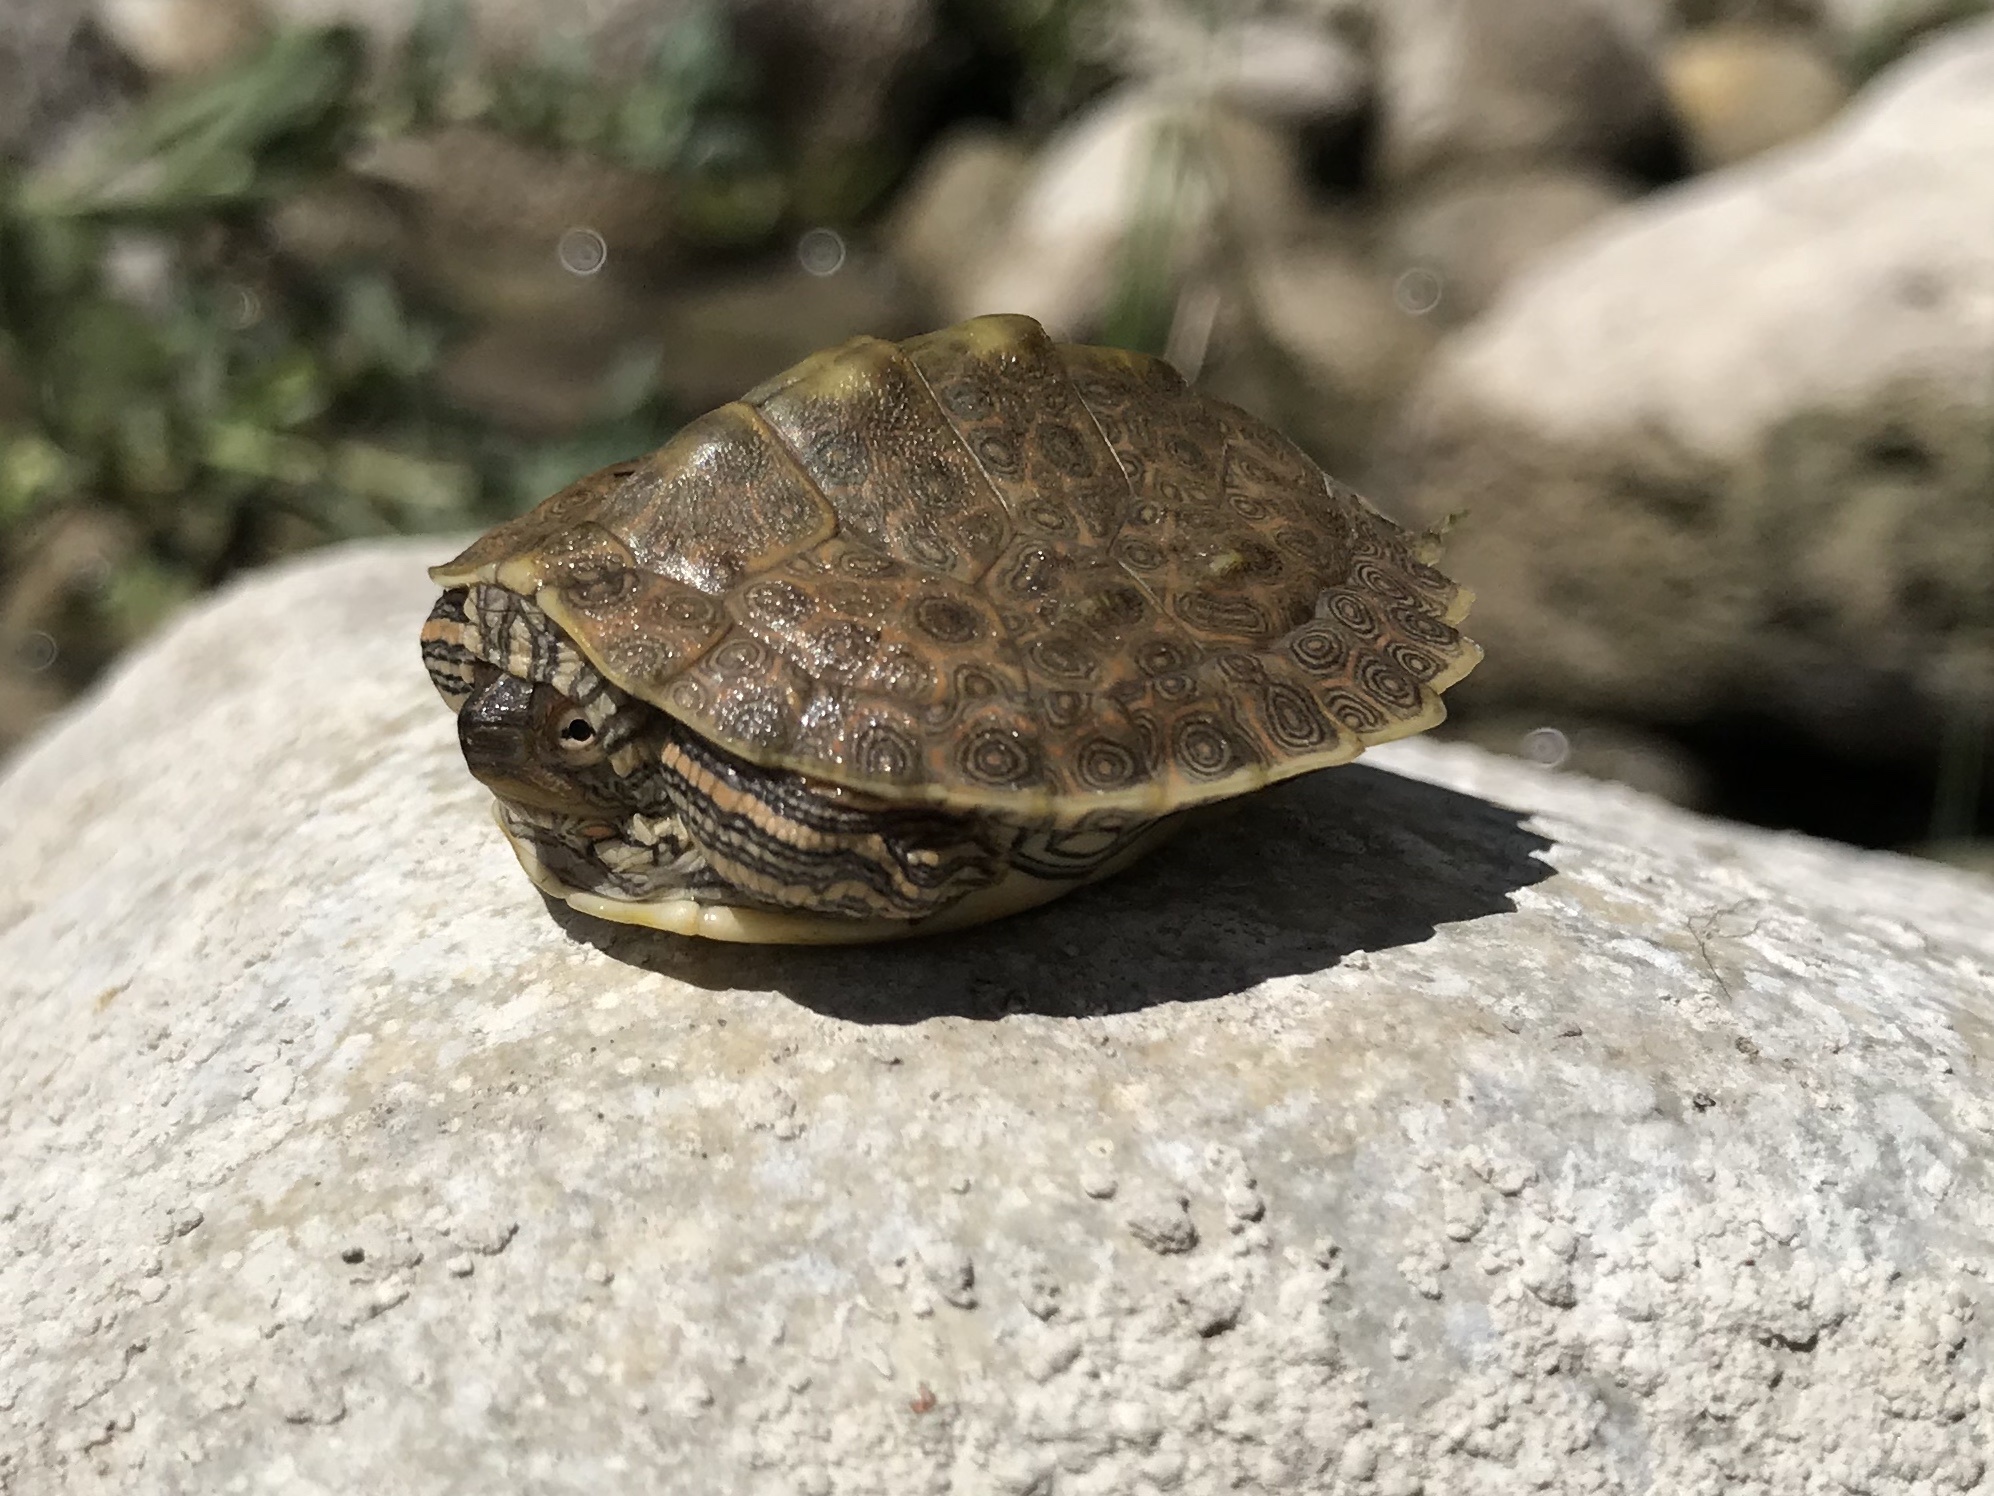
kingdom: Animalia
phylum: Chordata
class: Testudines
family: Emydidae
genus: Graptemys
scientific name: Graptemys versa
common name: Texas map turtle
